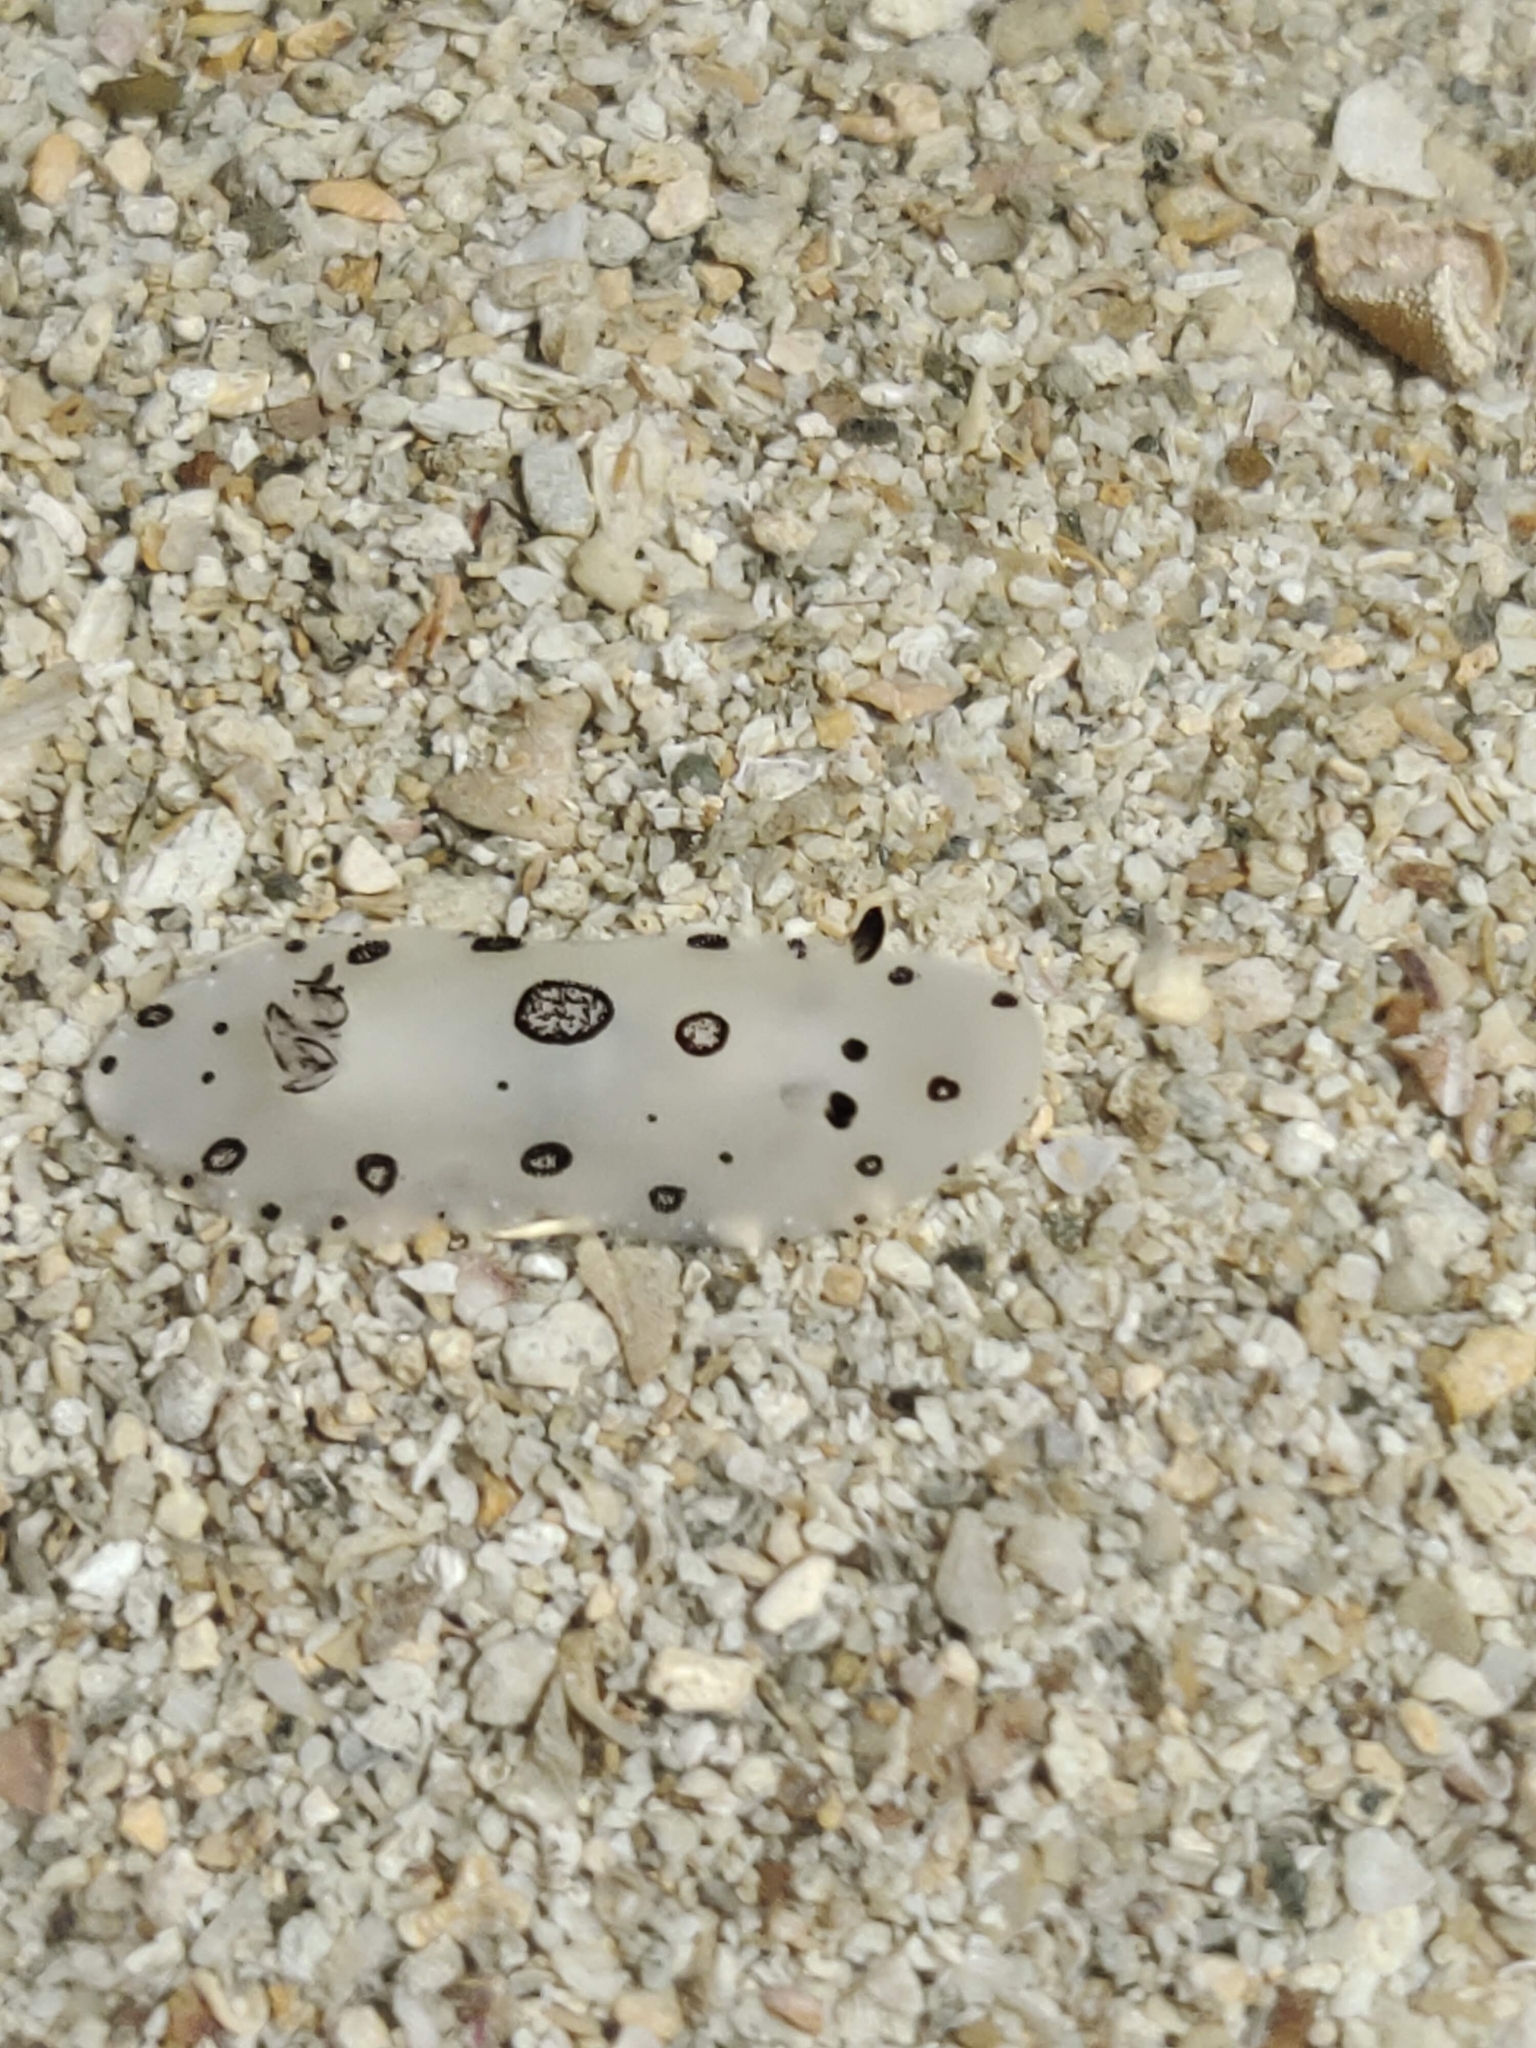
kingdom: Animalia
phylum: Mollusca
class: Gastropoda
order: Nudibranchia
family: Discodorididae
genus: Jorunna
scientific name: Jorunna funebris
